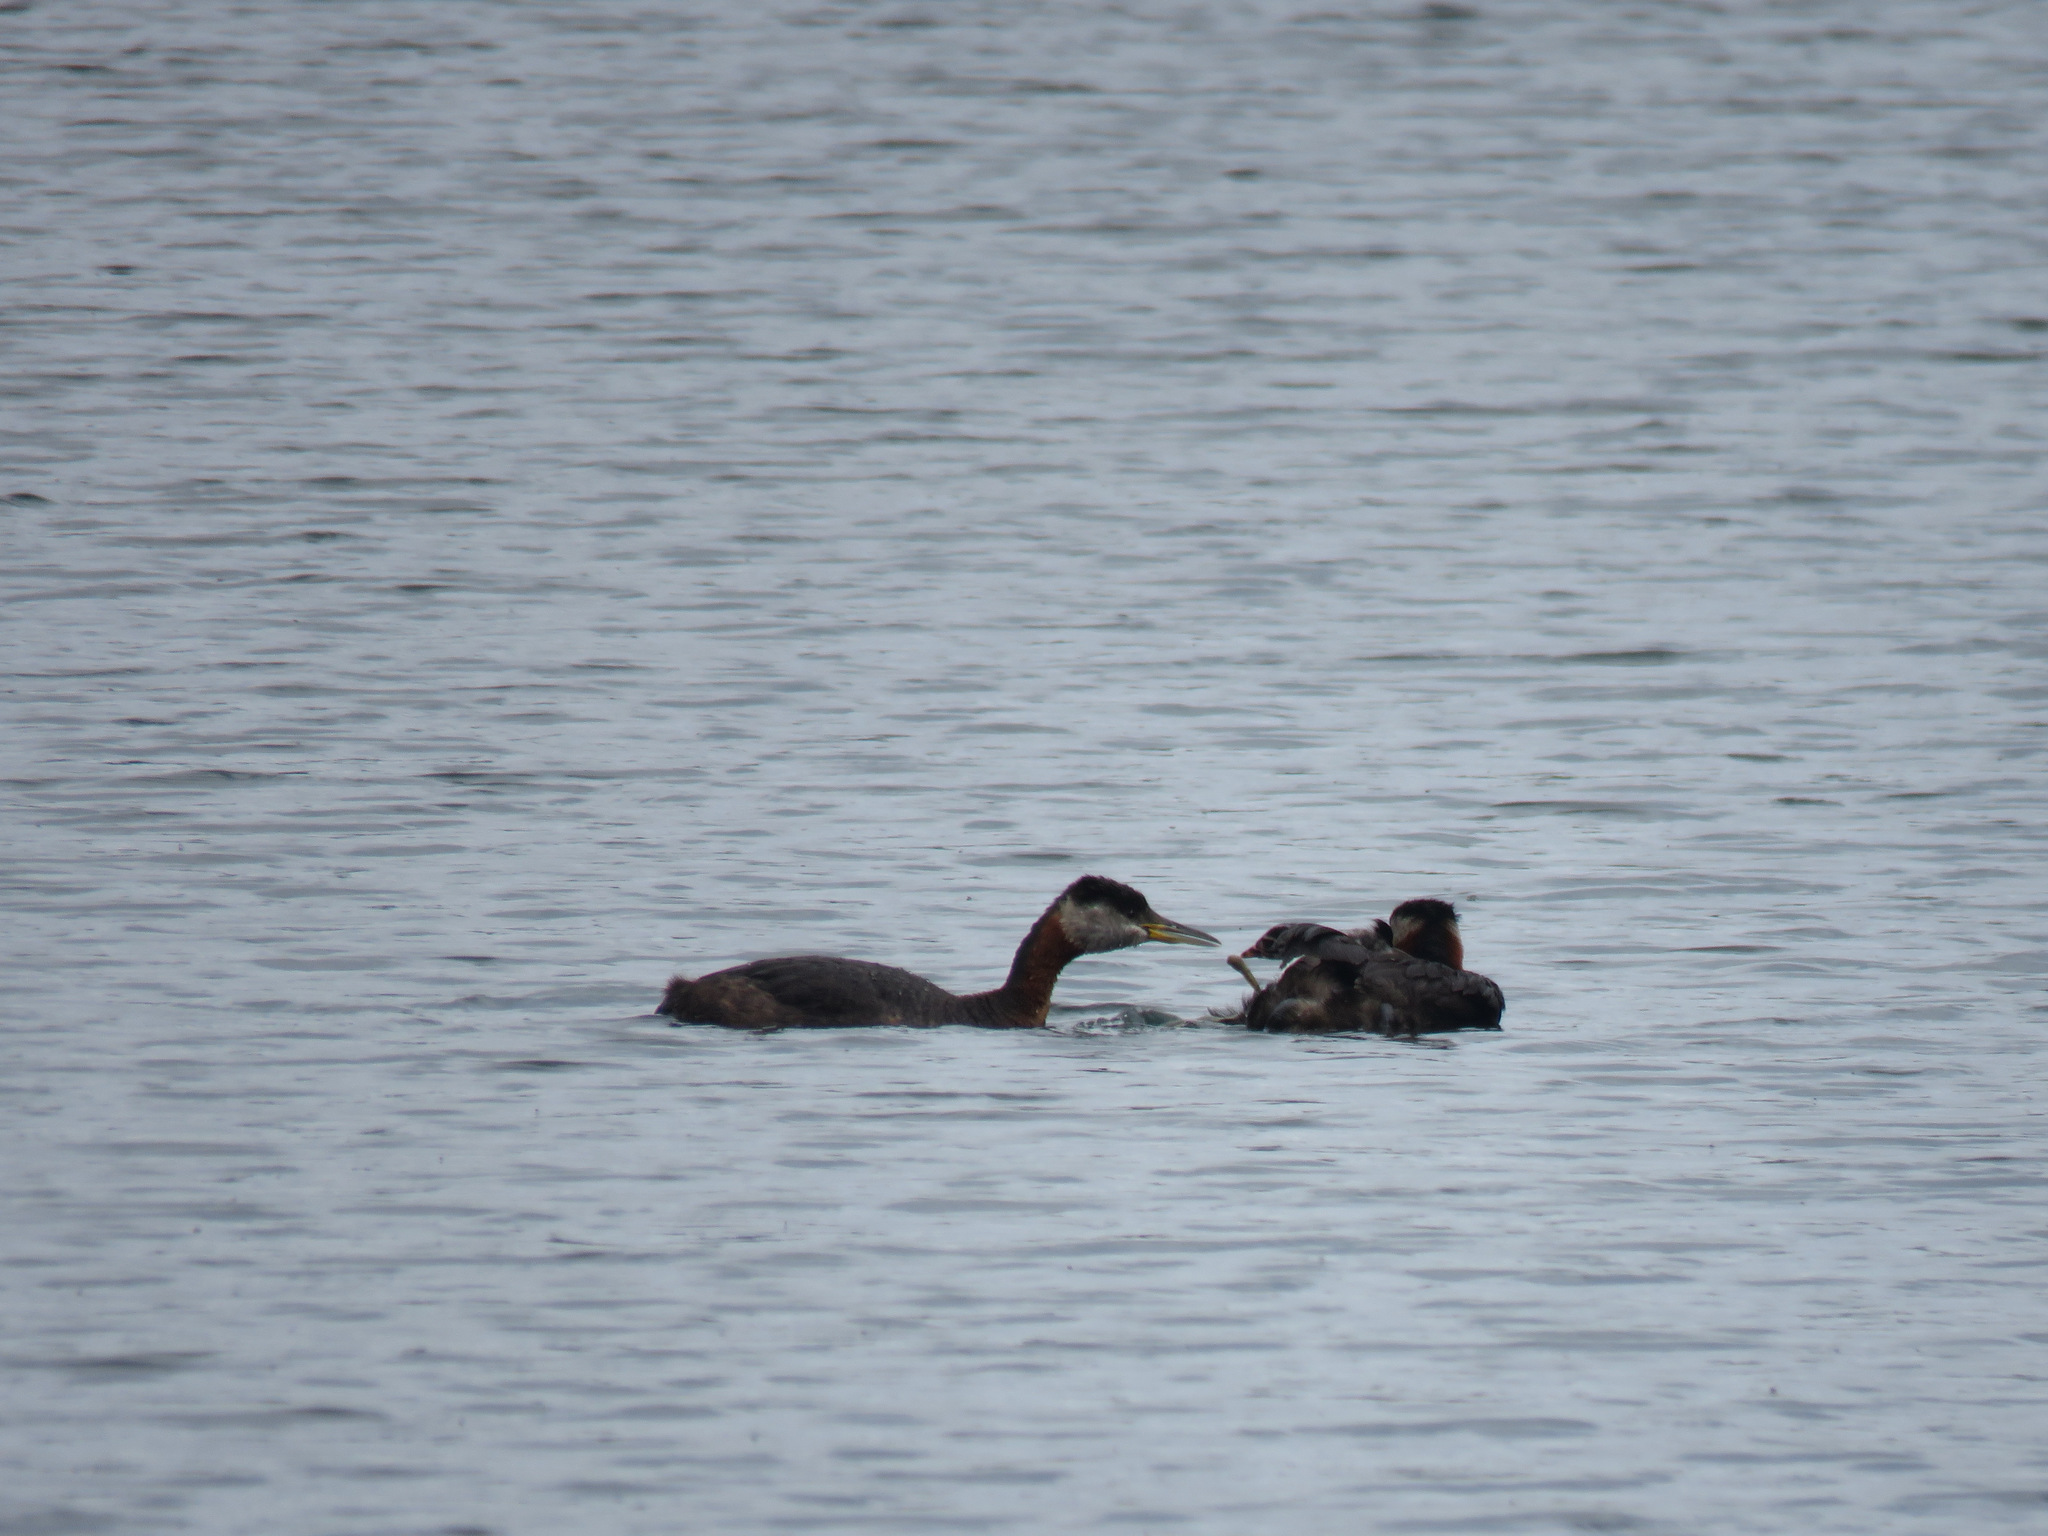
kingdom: Animalia
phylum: Chordata
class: Aves
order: Podicipediformes
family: Podicipedidae
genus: Podiceps
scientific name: Podiceps grisegena
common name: Red-necked grebe
